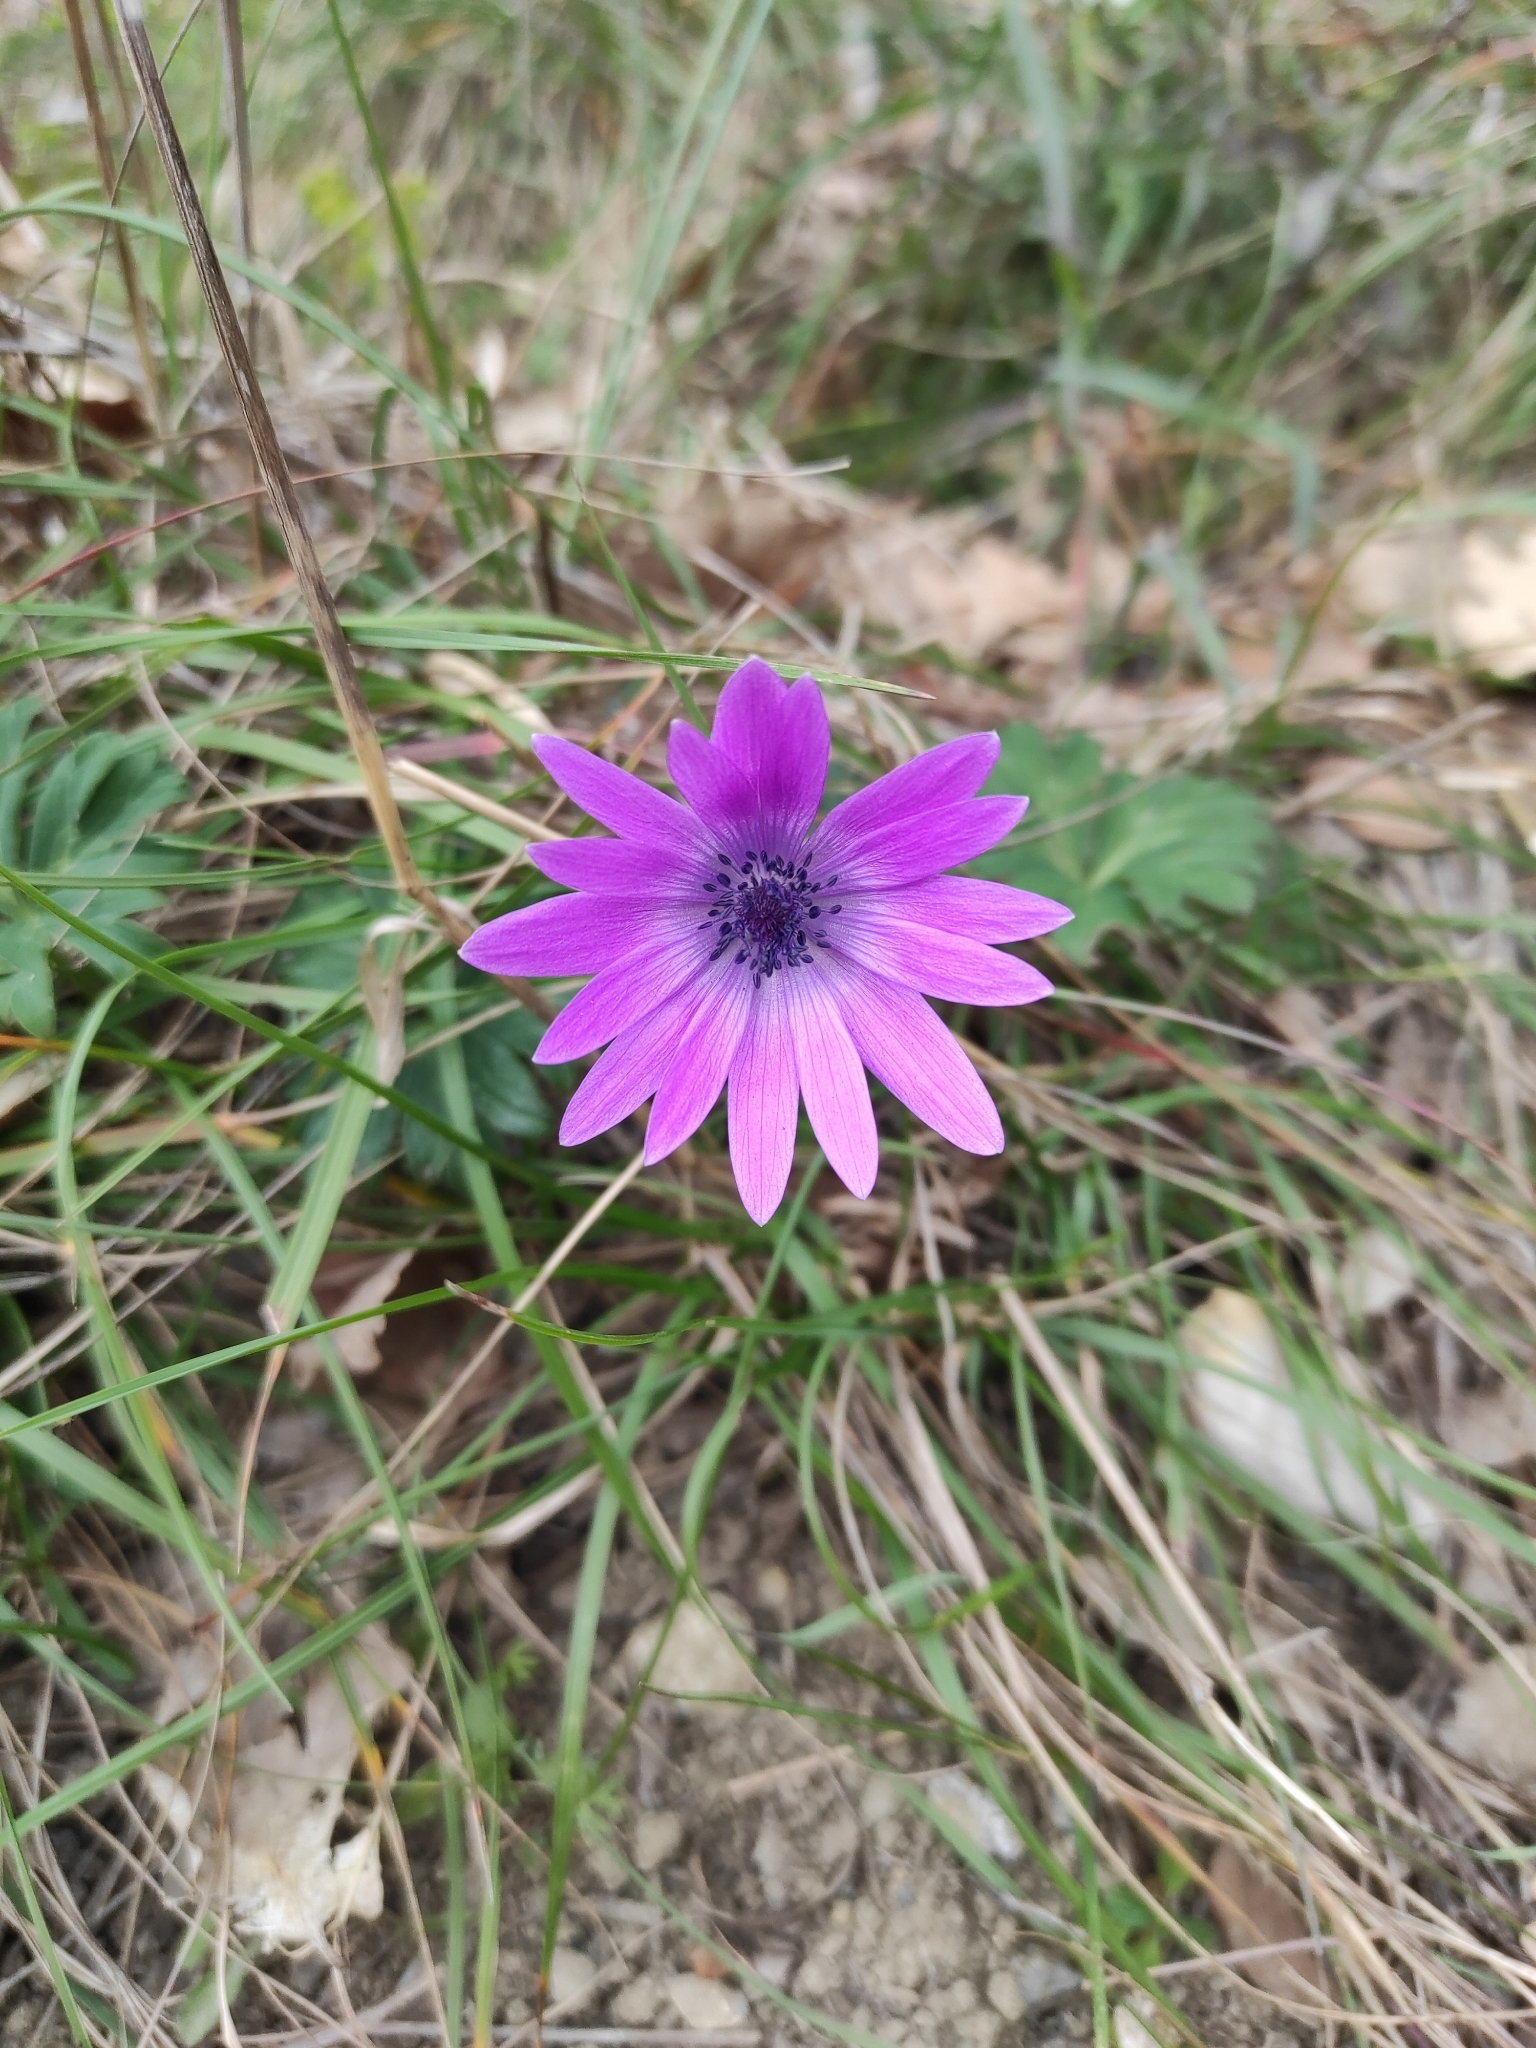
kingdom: Plantae
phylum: Tracheophyta
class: Magnoliopsida
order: Ranunculales
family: Ranunculaceae
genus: Anemone
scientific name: Anemone hortensis
